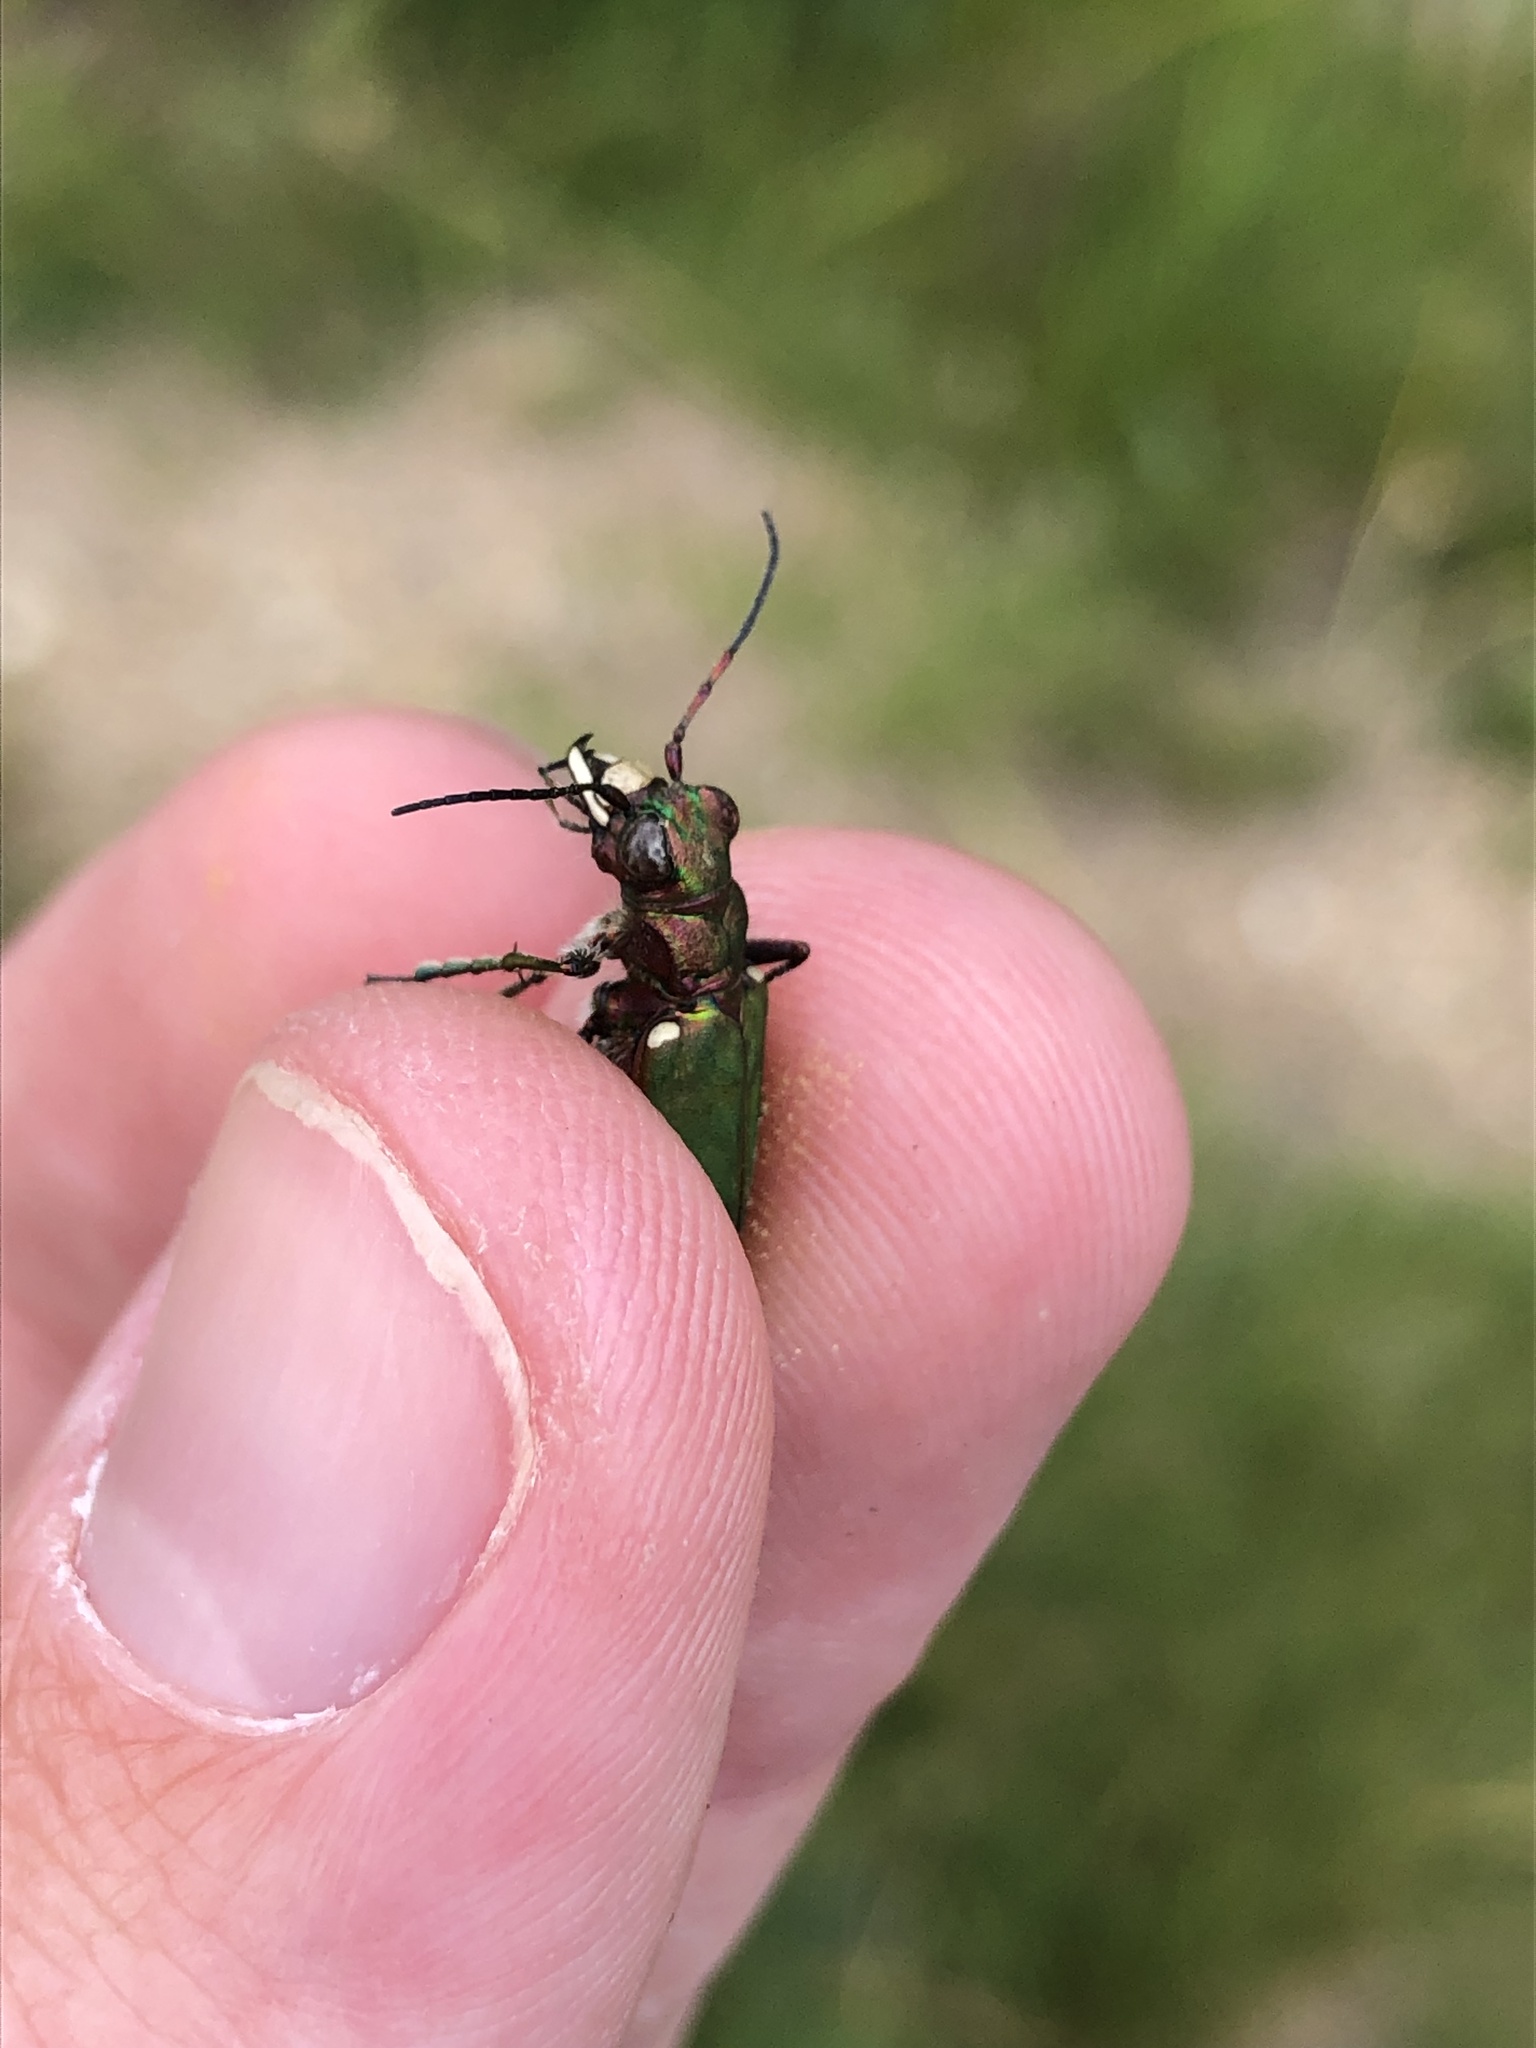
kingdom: Animalia
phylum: Arthropoda
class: Insecta
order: Coleoptera
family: Carabidae
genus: Cicindela
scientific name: Cicindela campestris
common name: Common tiger beetle
